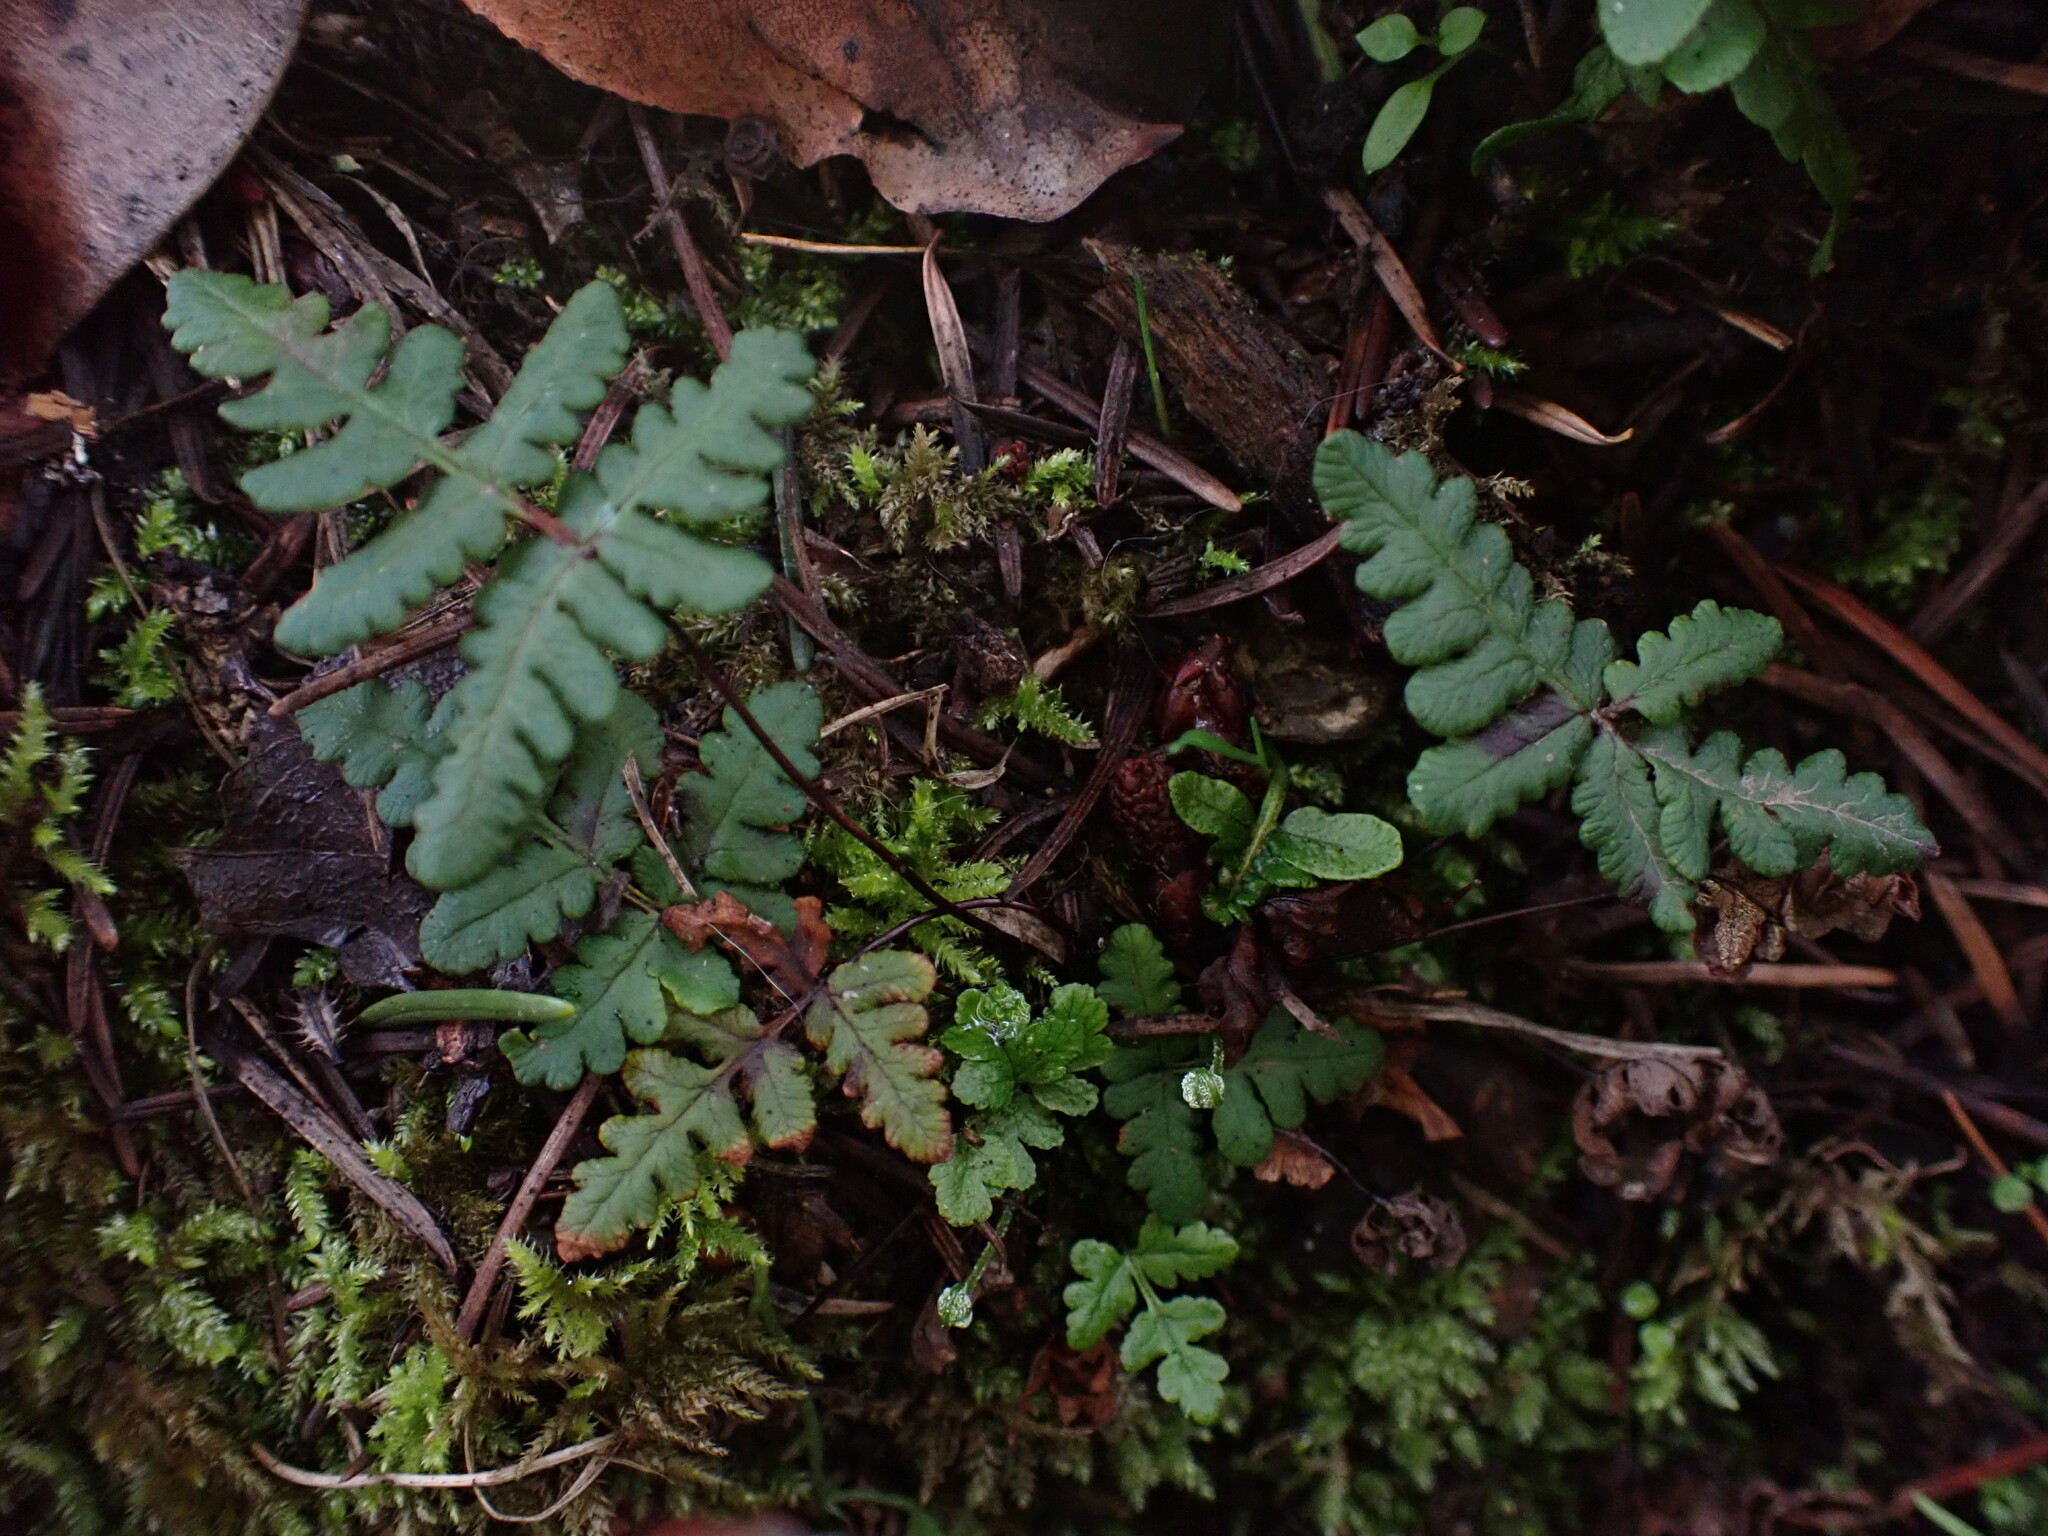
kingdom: Plantae
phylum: Tracheophyta
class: Polypodiopsida
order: Polypodiales
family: Pteridaceae
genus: Pentagramma
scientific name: Pentagramma triangularis
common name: Gold fern
